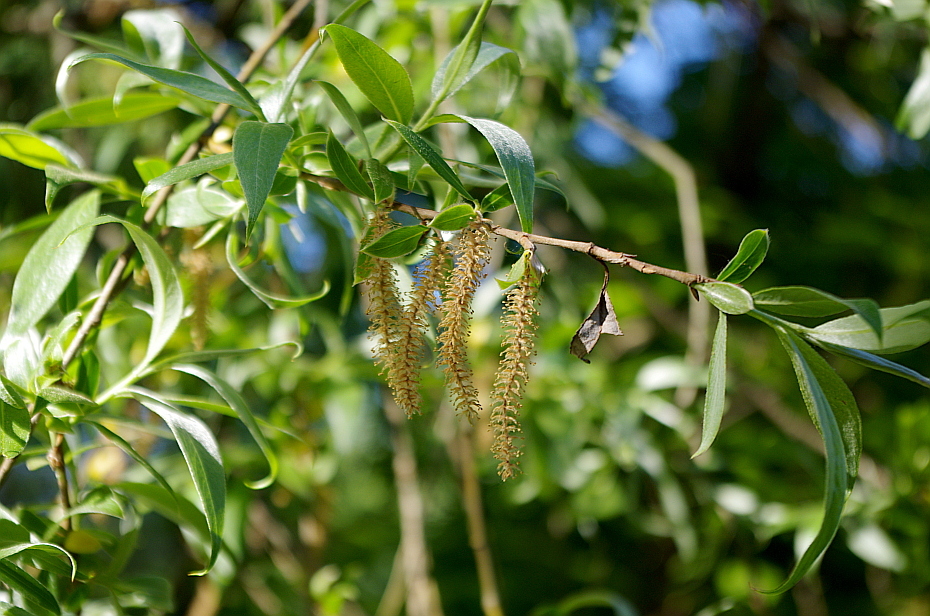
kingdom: Plantae
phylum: Tracheophyta
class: Magnoliopsida
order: Malpighiales
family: Salicaceae
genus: Salix
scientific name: Salix alba
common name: White willow
